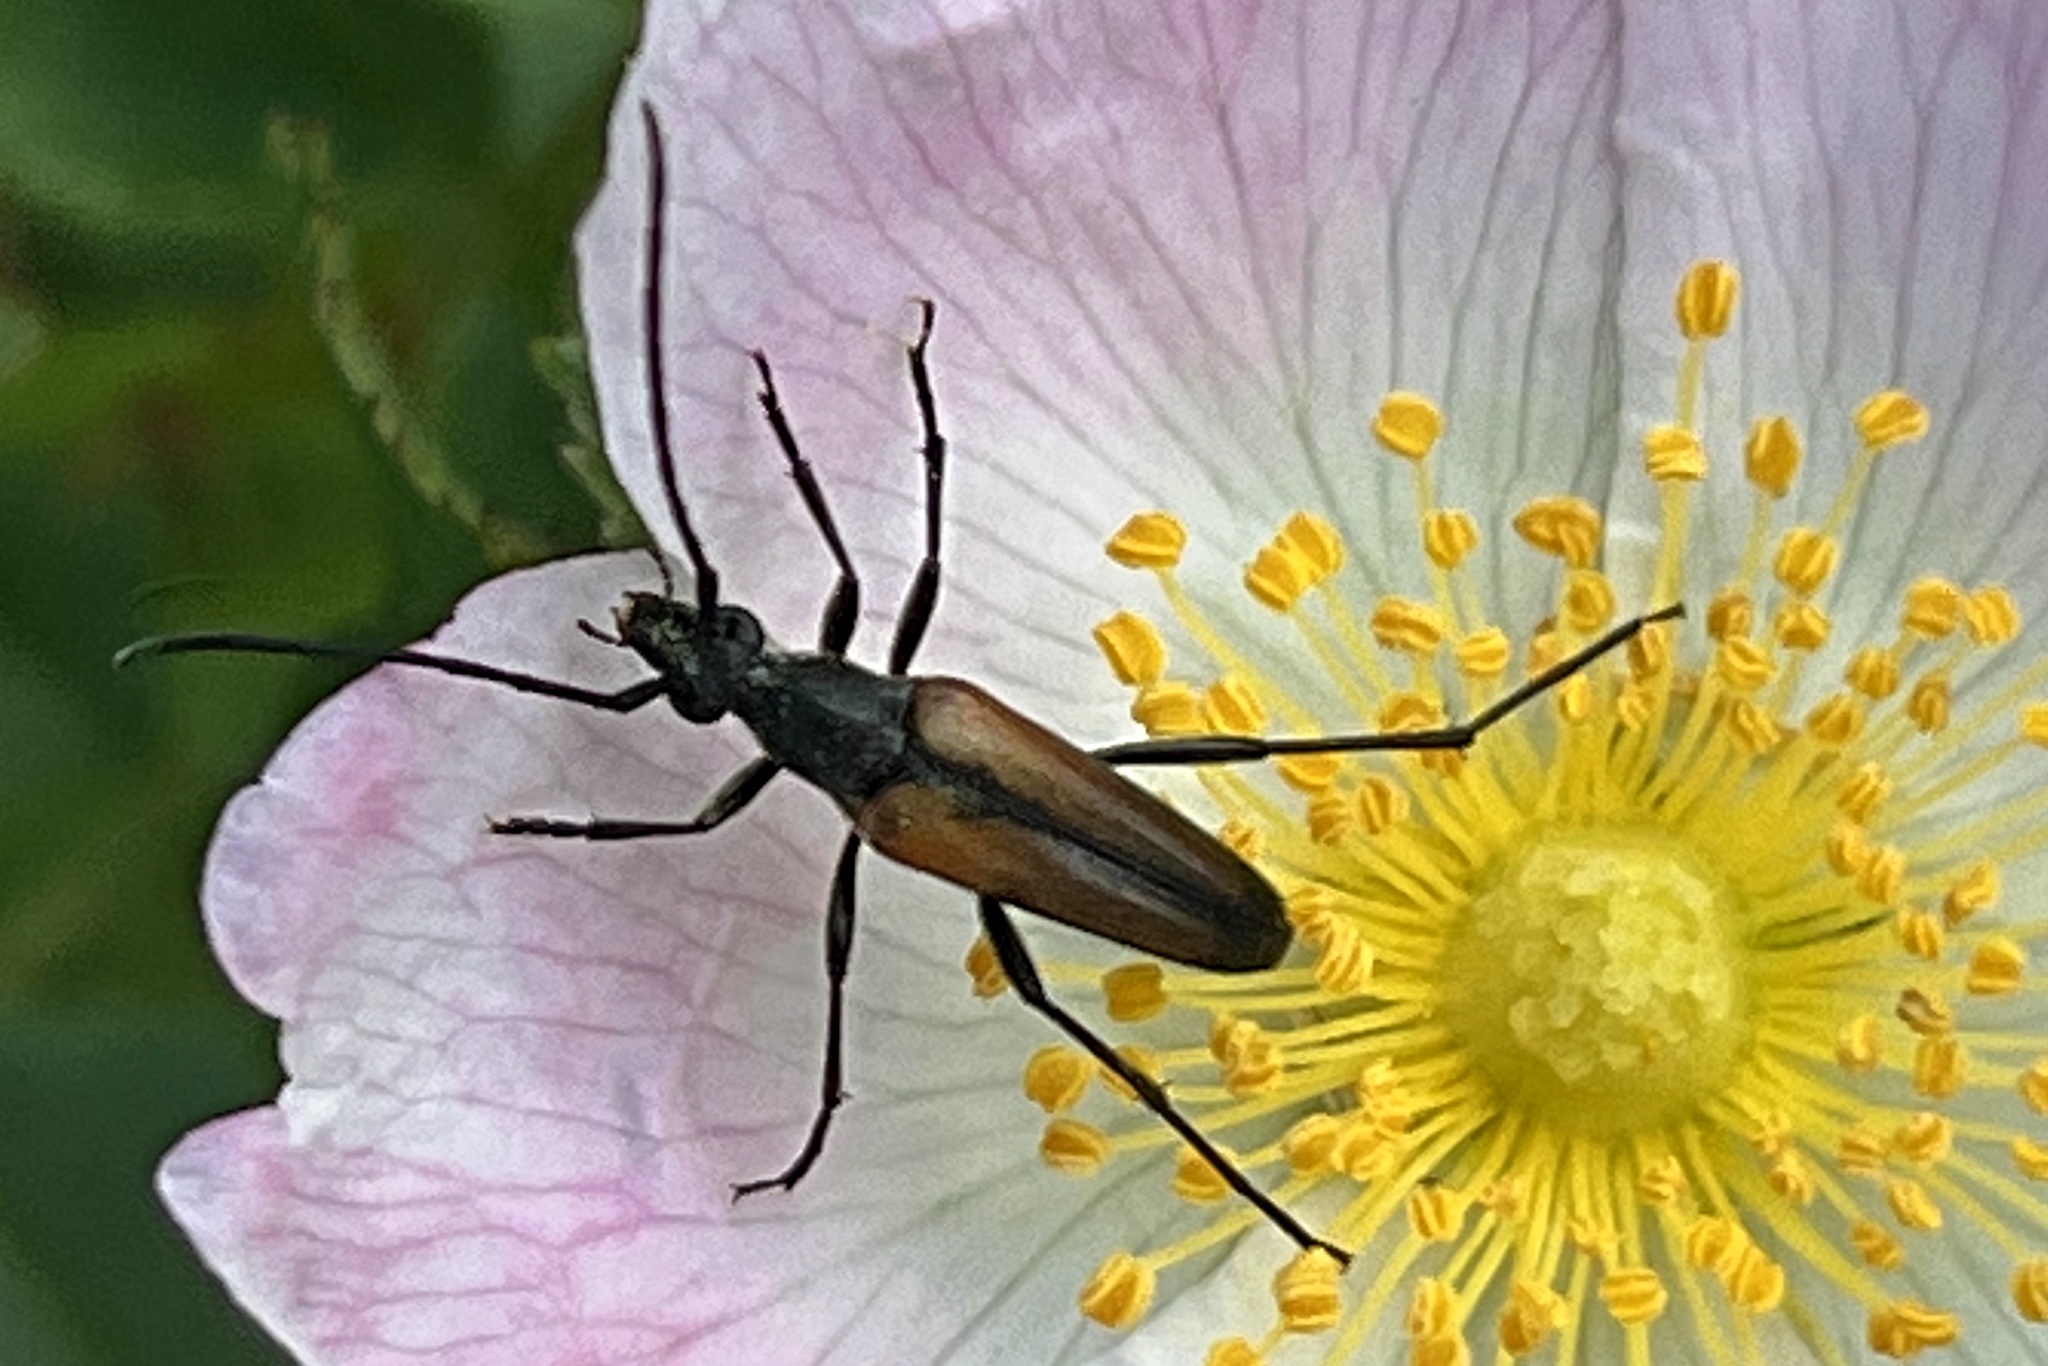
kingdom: Animalia
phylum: Arthropoda
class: Insecta
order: Coleoptera
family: Cerambycidae
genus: Stenurella
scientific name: Stenurella melanura
